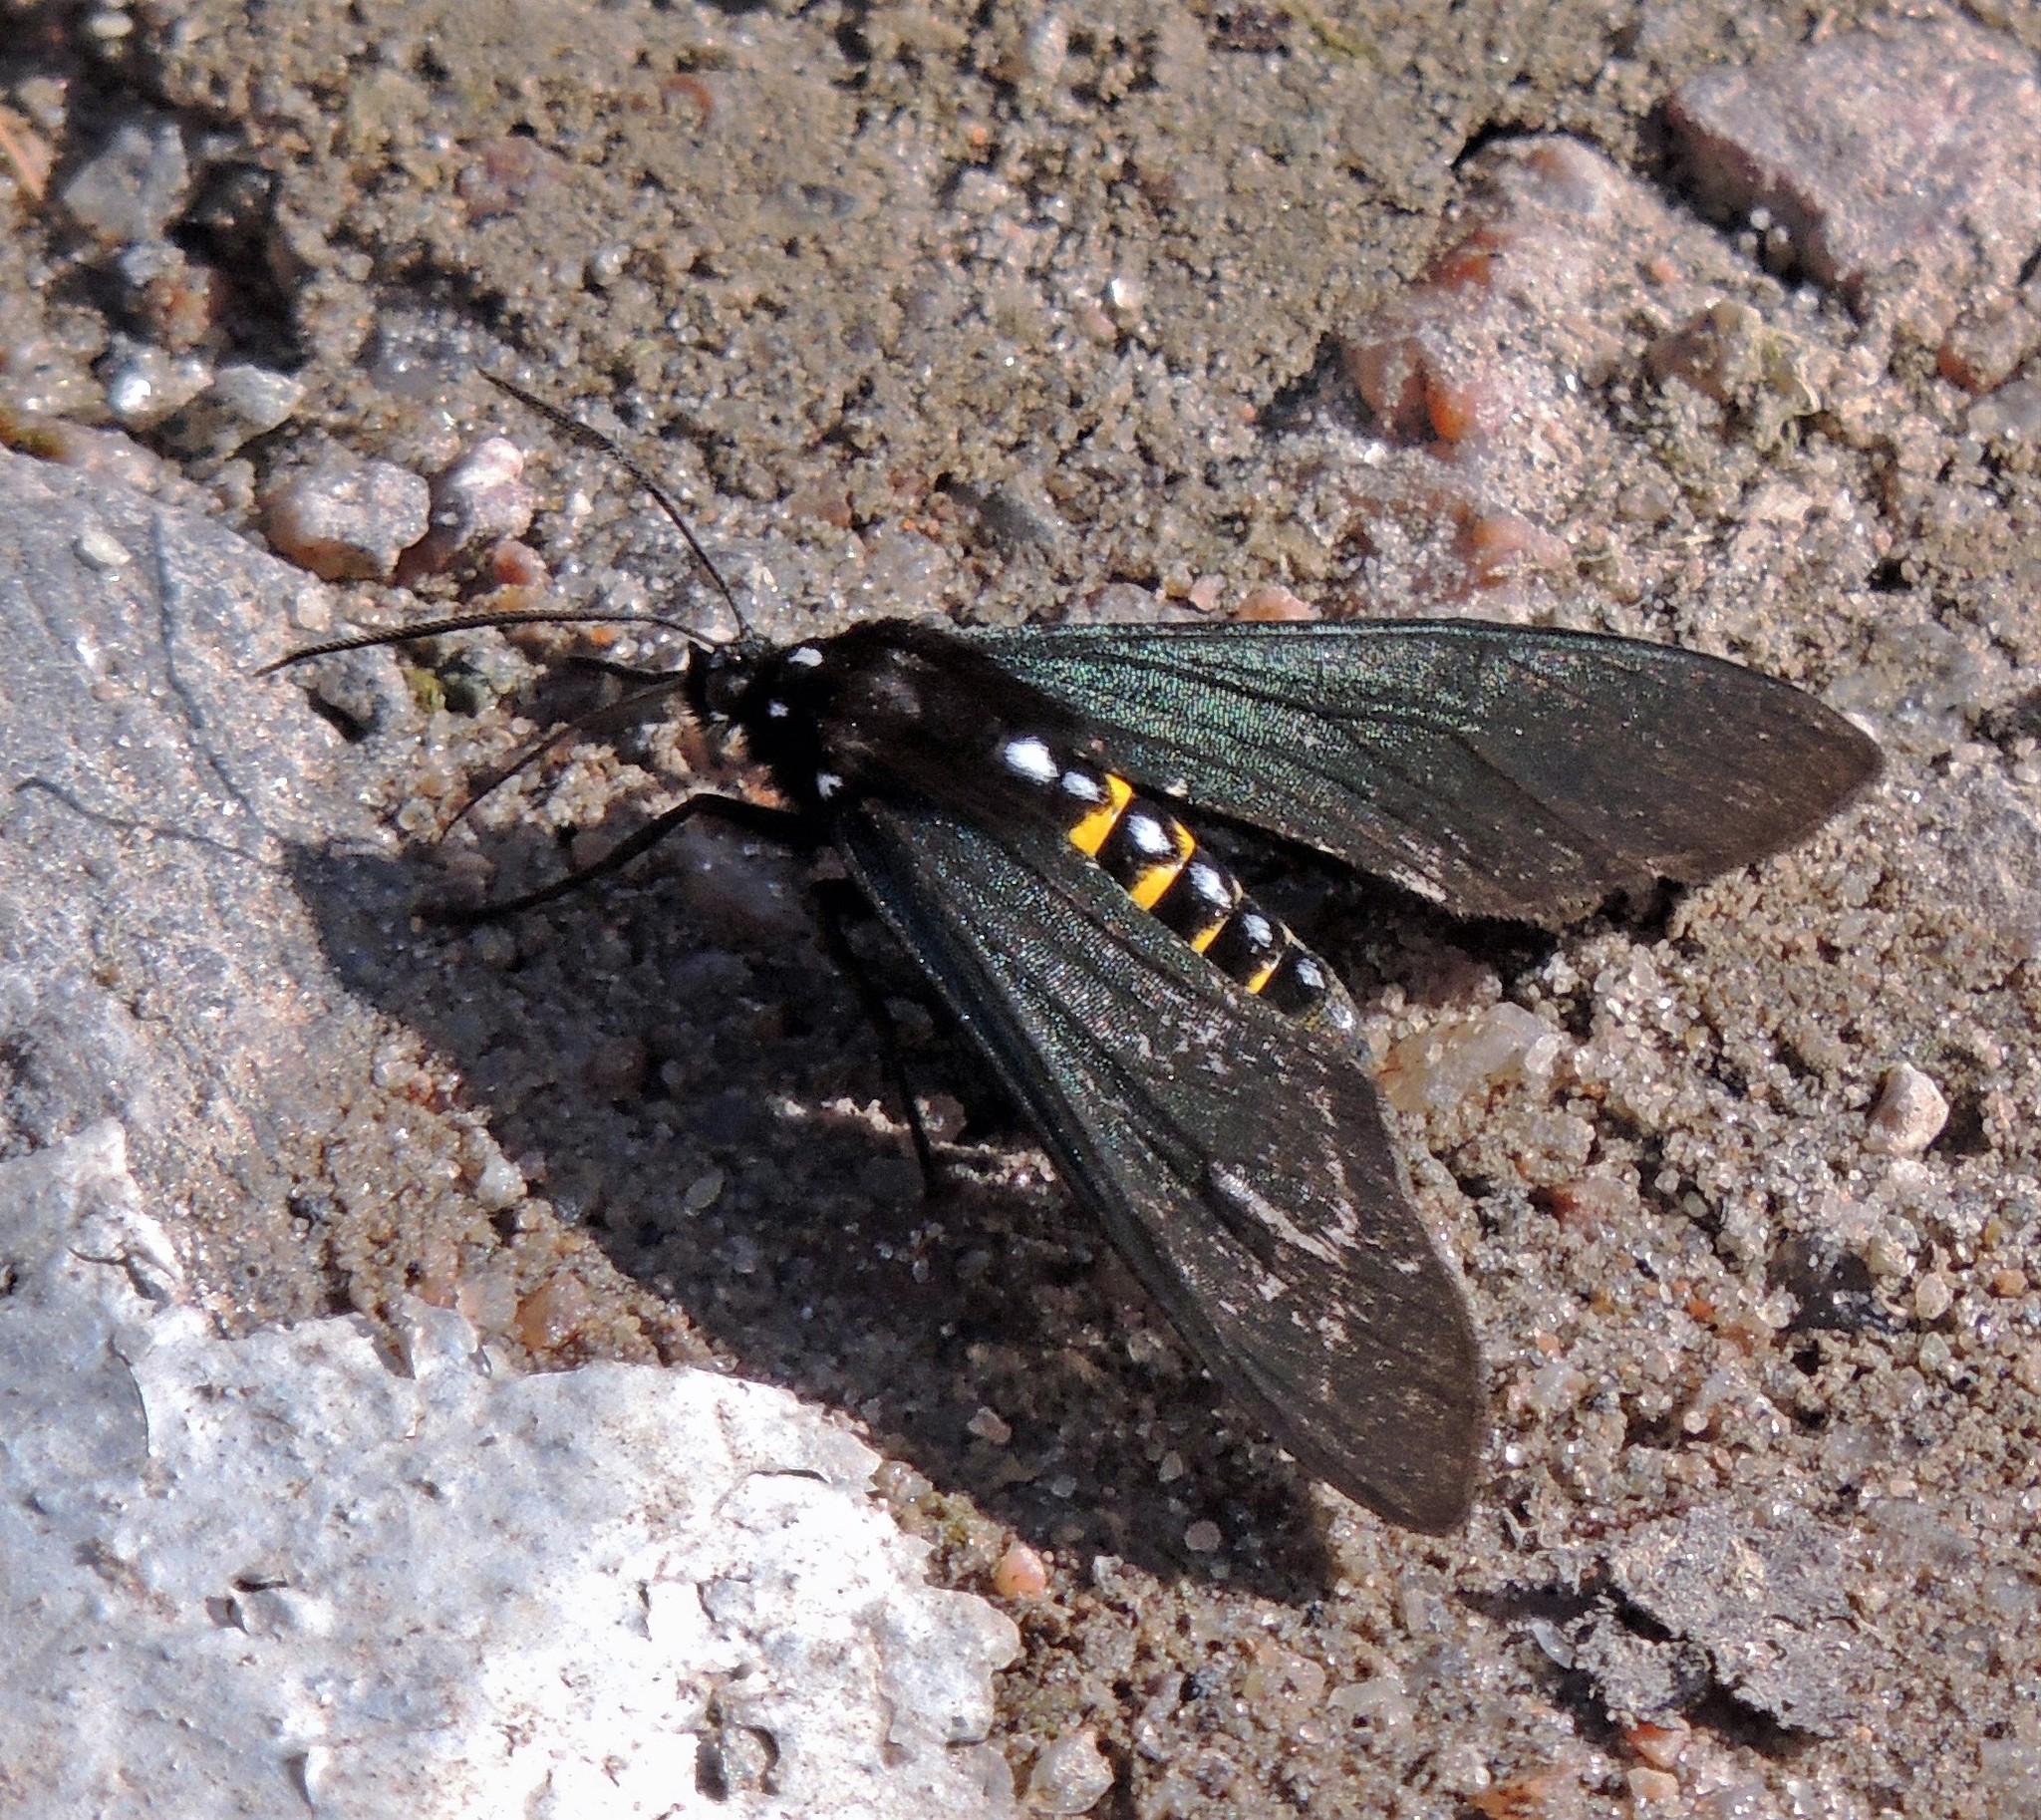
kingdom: Animalia
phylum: Arthropoda
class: Insecta
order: Lepidoptera
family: Erebidae
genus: Chrysocale
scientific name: Chrysocale ferens
